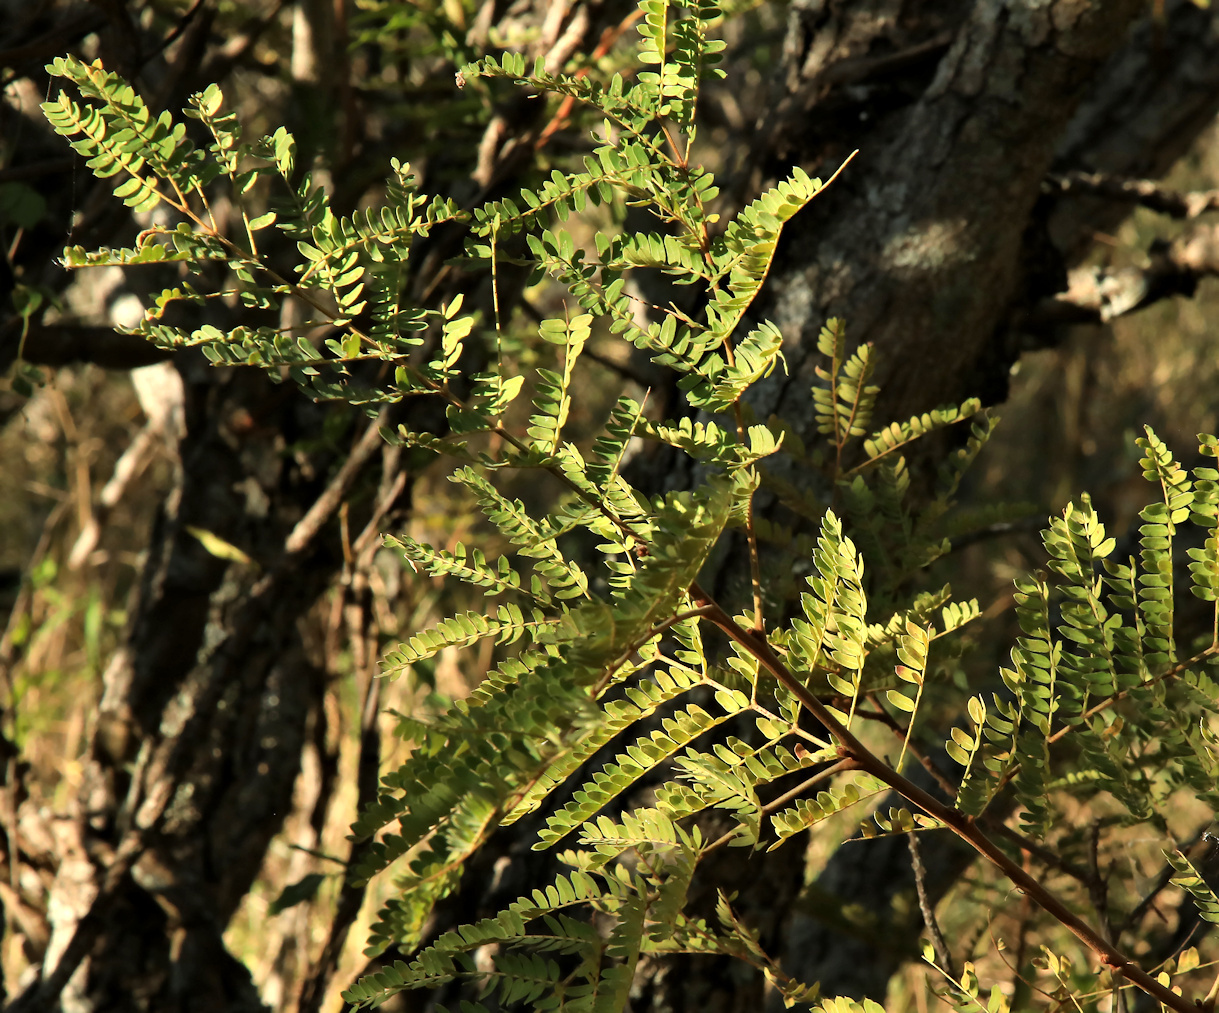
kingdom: Plantae
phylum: Tracheophyta
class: Magnoliopsida
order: Fabales
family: Fabaceae
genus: Peltophorum
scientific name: Peltophorum africanum
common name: African black wattle
